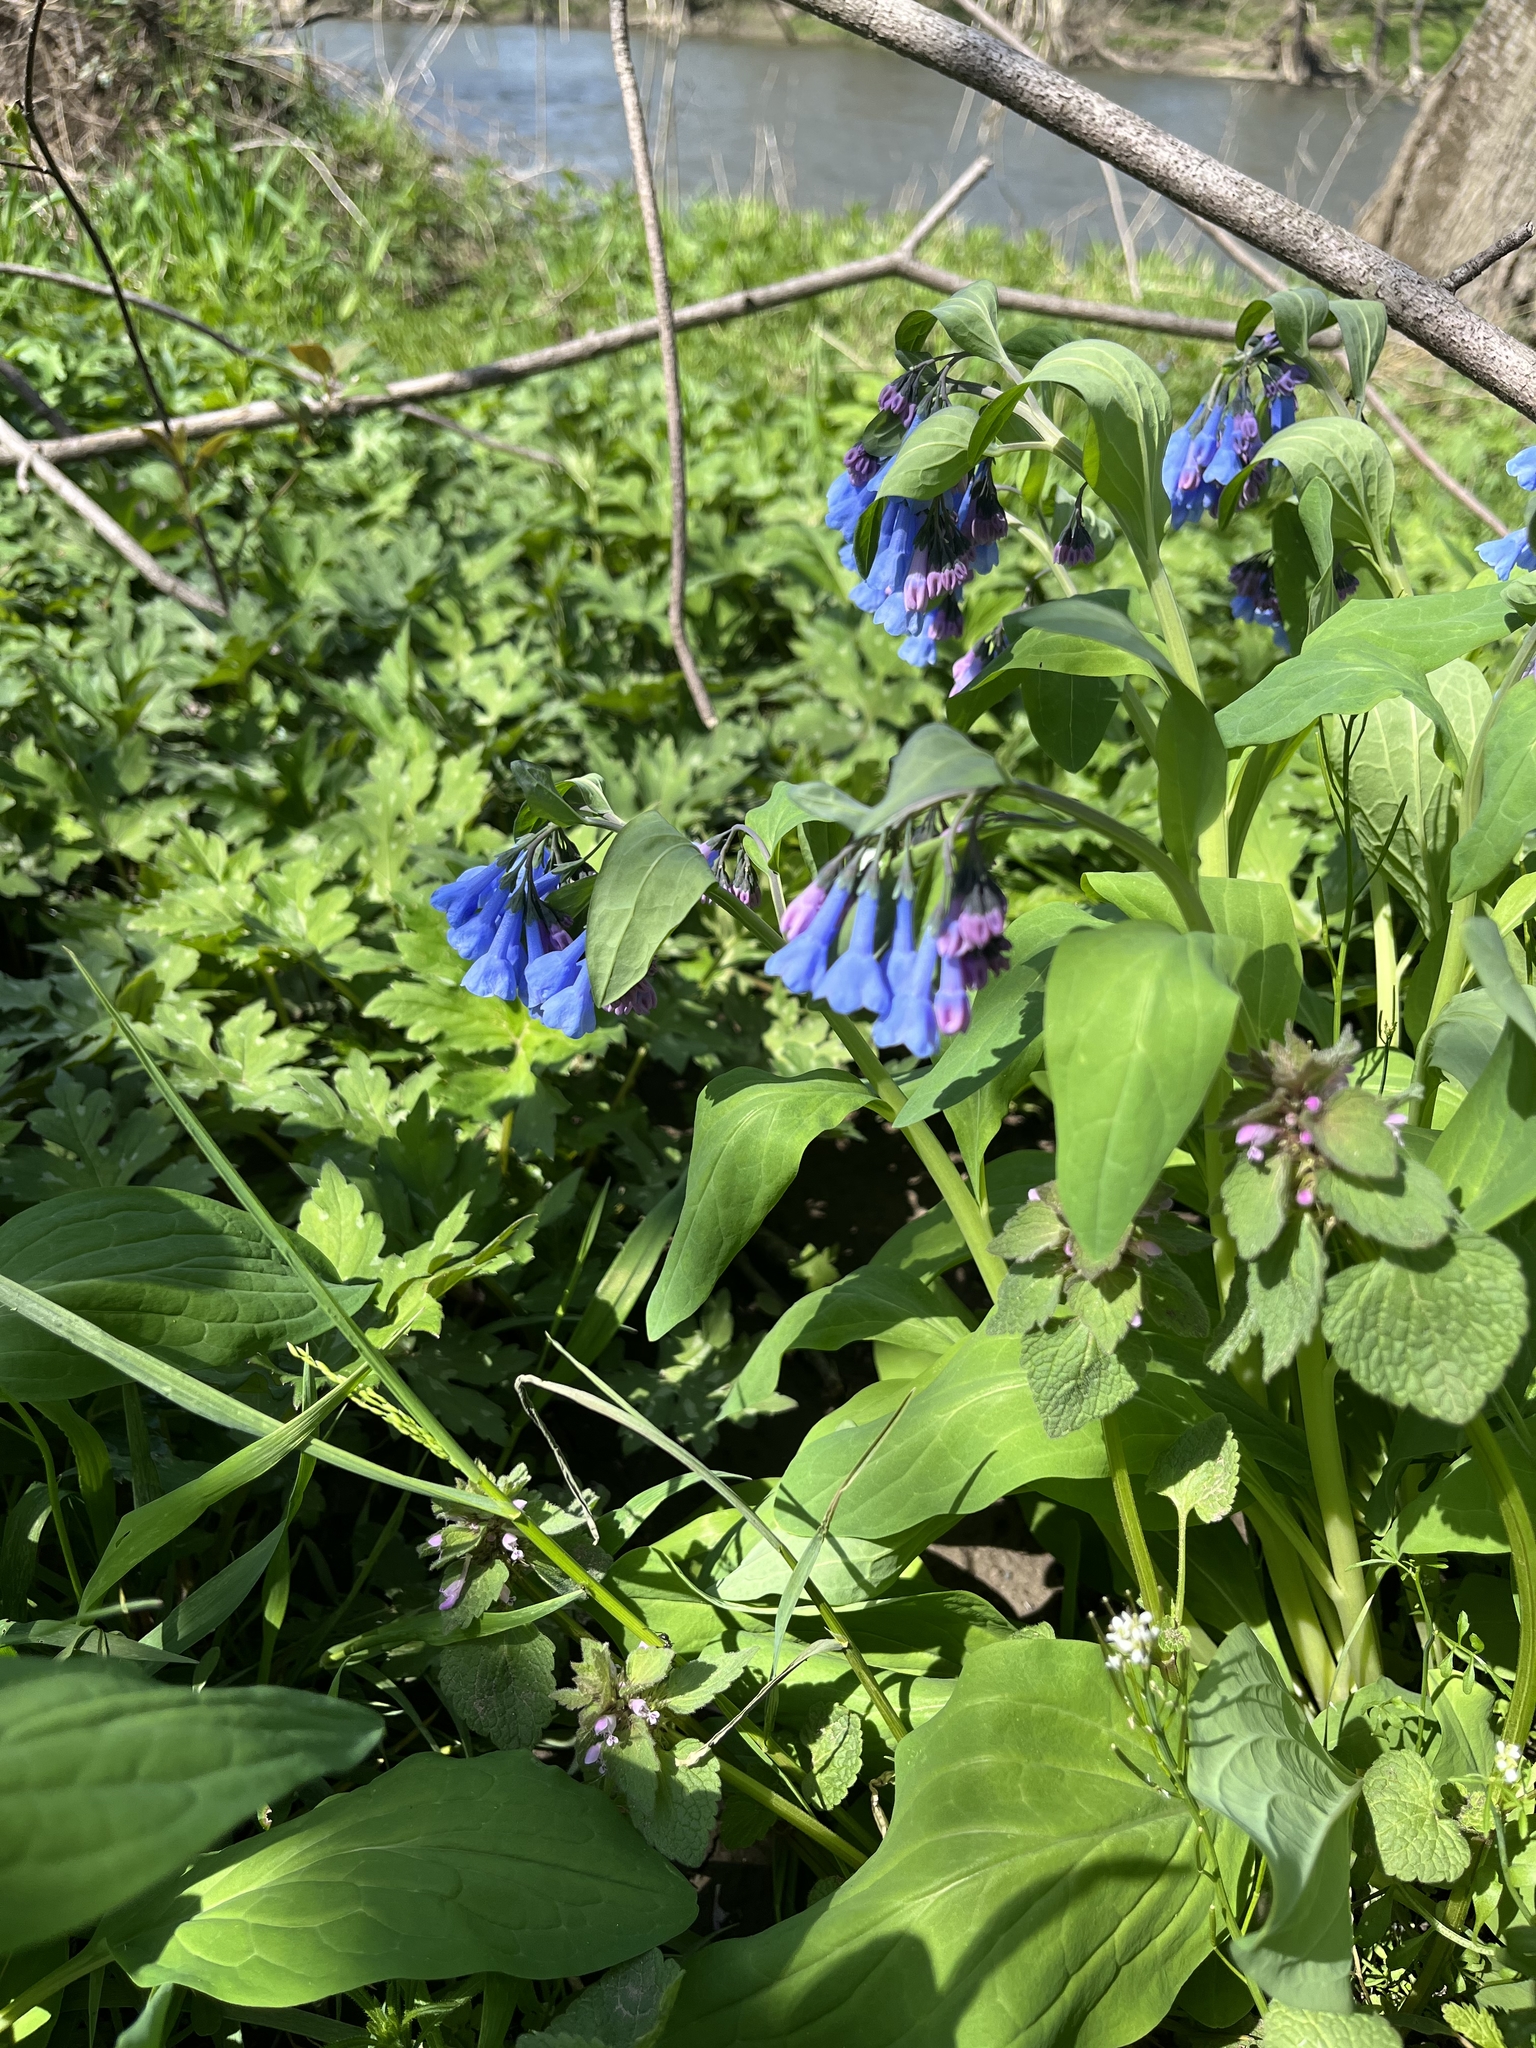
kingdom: Plantae
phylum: Tracheophyta
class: Magnoliopsida
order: Boraginales
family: Boraginaceae
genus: Mertensia
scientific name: Mertensia virginica
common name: Virginia bluebells
